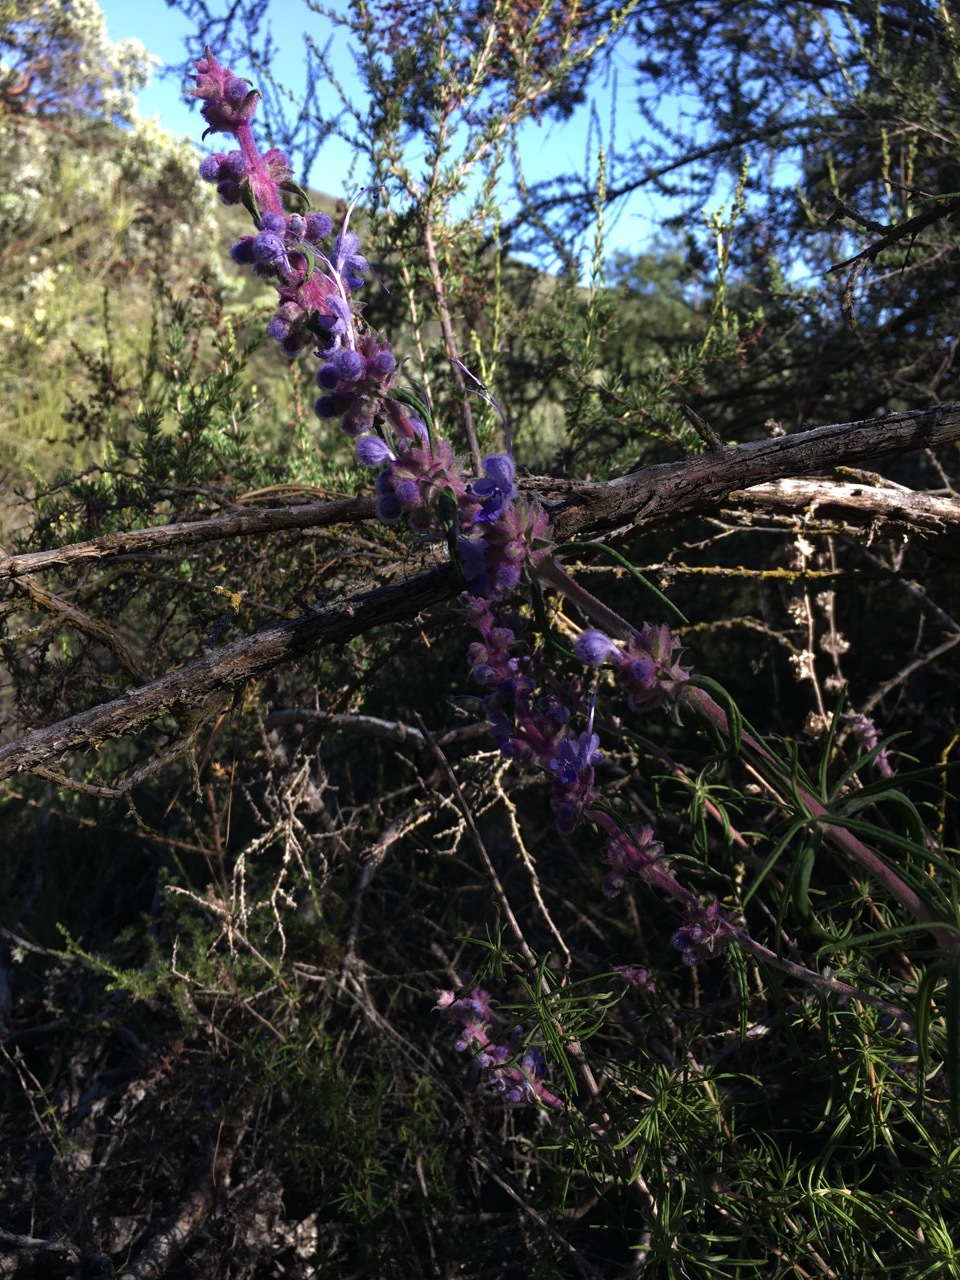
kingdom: Plantae
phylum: Tracheophyta
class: Magnoliopsida
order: Lamiales
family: Lamiaceae
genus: Trichostema
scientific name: Trichostema lanatum
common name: Woolly bluecurls
